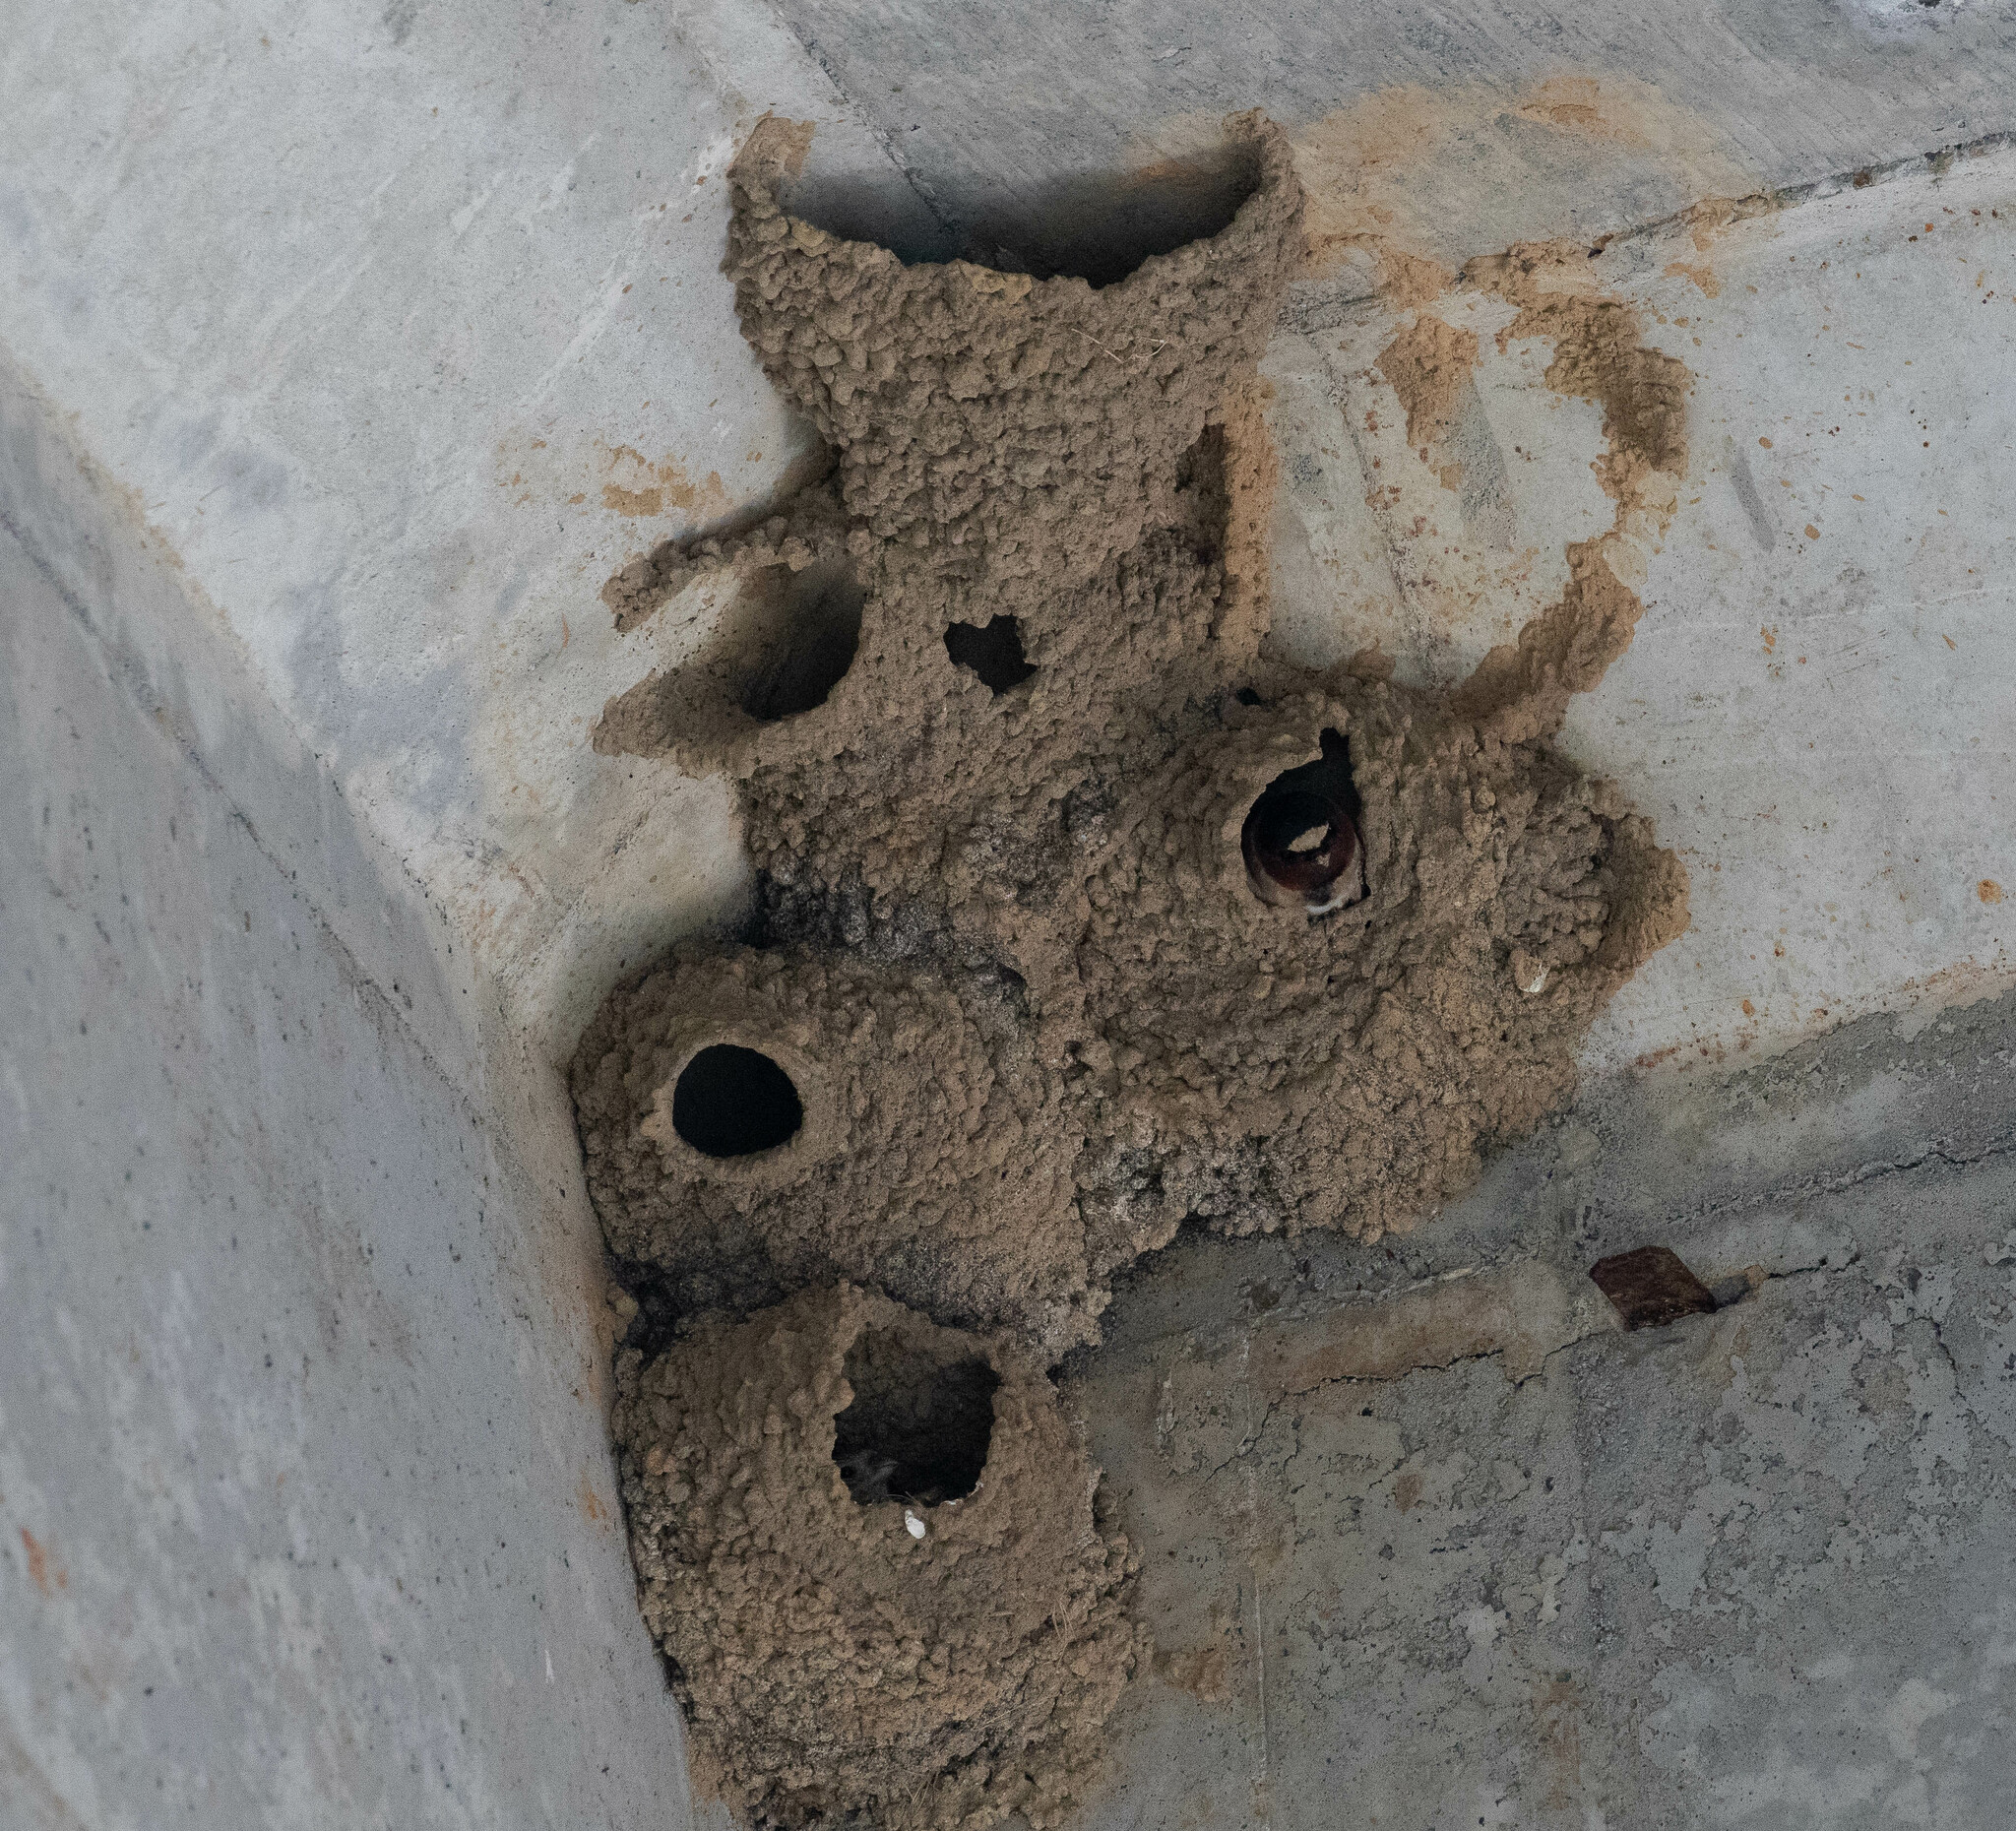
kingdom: Animalia
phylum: Chordata
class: Aves
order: Passeriformes
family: Hirundinidae
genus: Petrochelidon
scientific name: Petrochelidon pyrrhonota
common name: American cliff swallow
